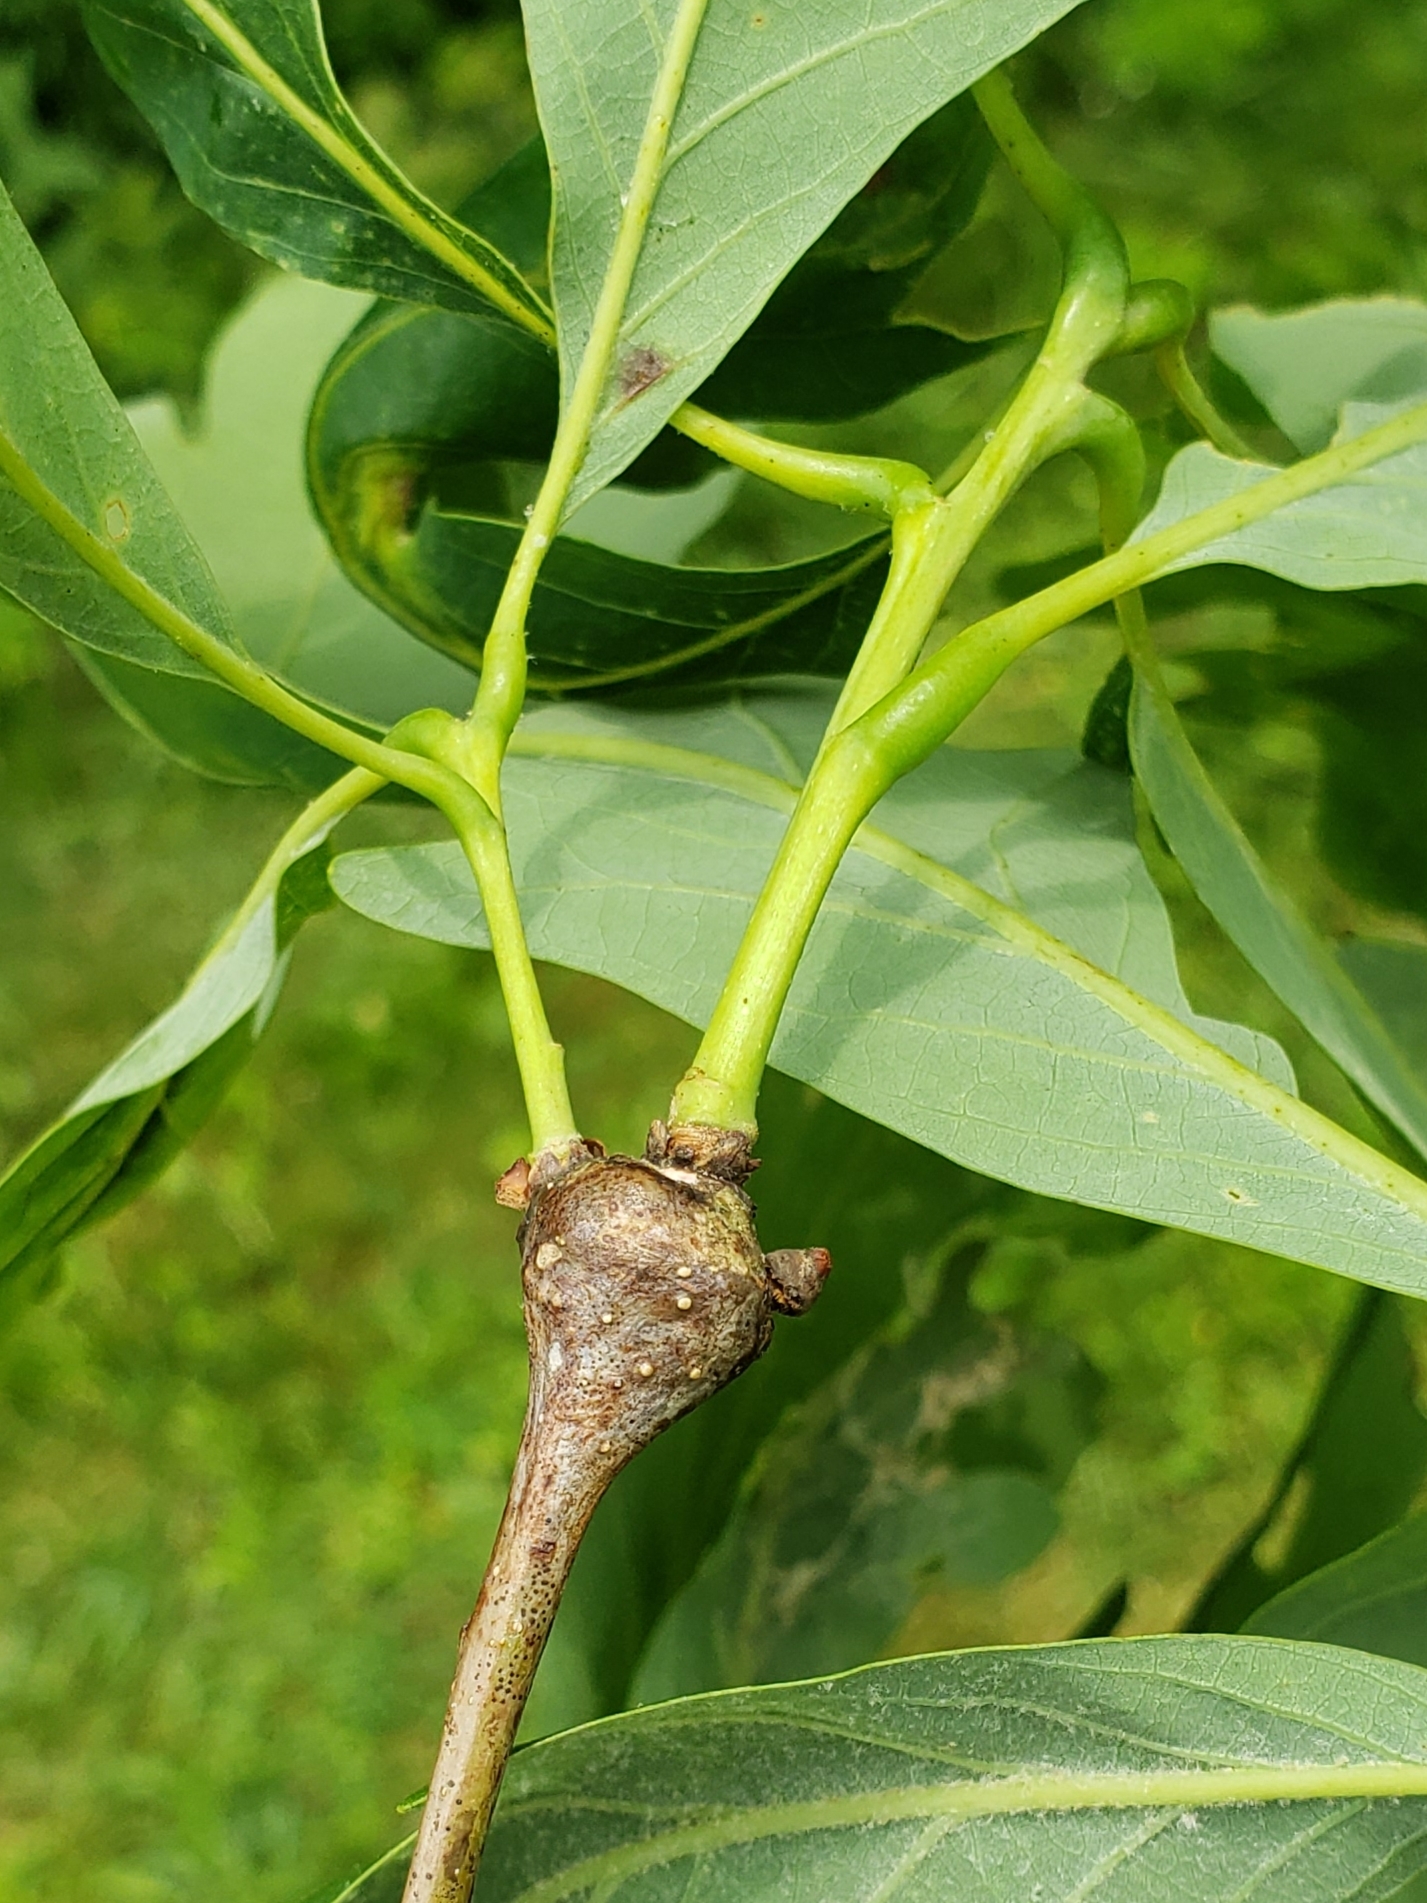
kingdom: Animalia
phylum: Arthropoda
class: Insecta
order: Hymenoptera
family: Cynipidae
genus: Callirhytis
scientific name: Callirhytis clavula
